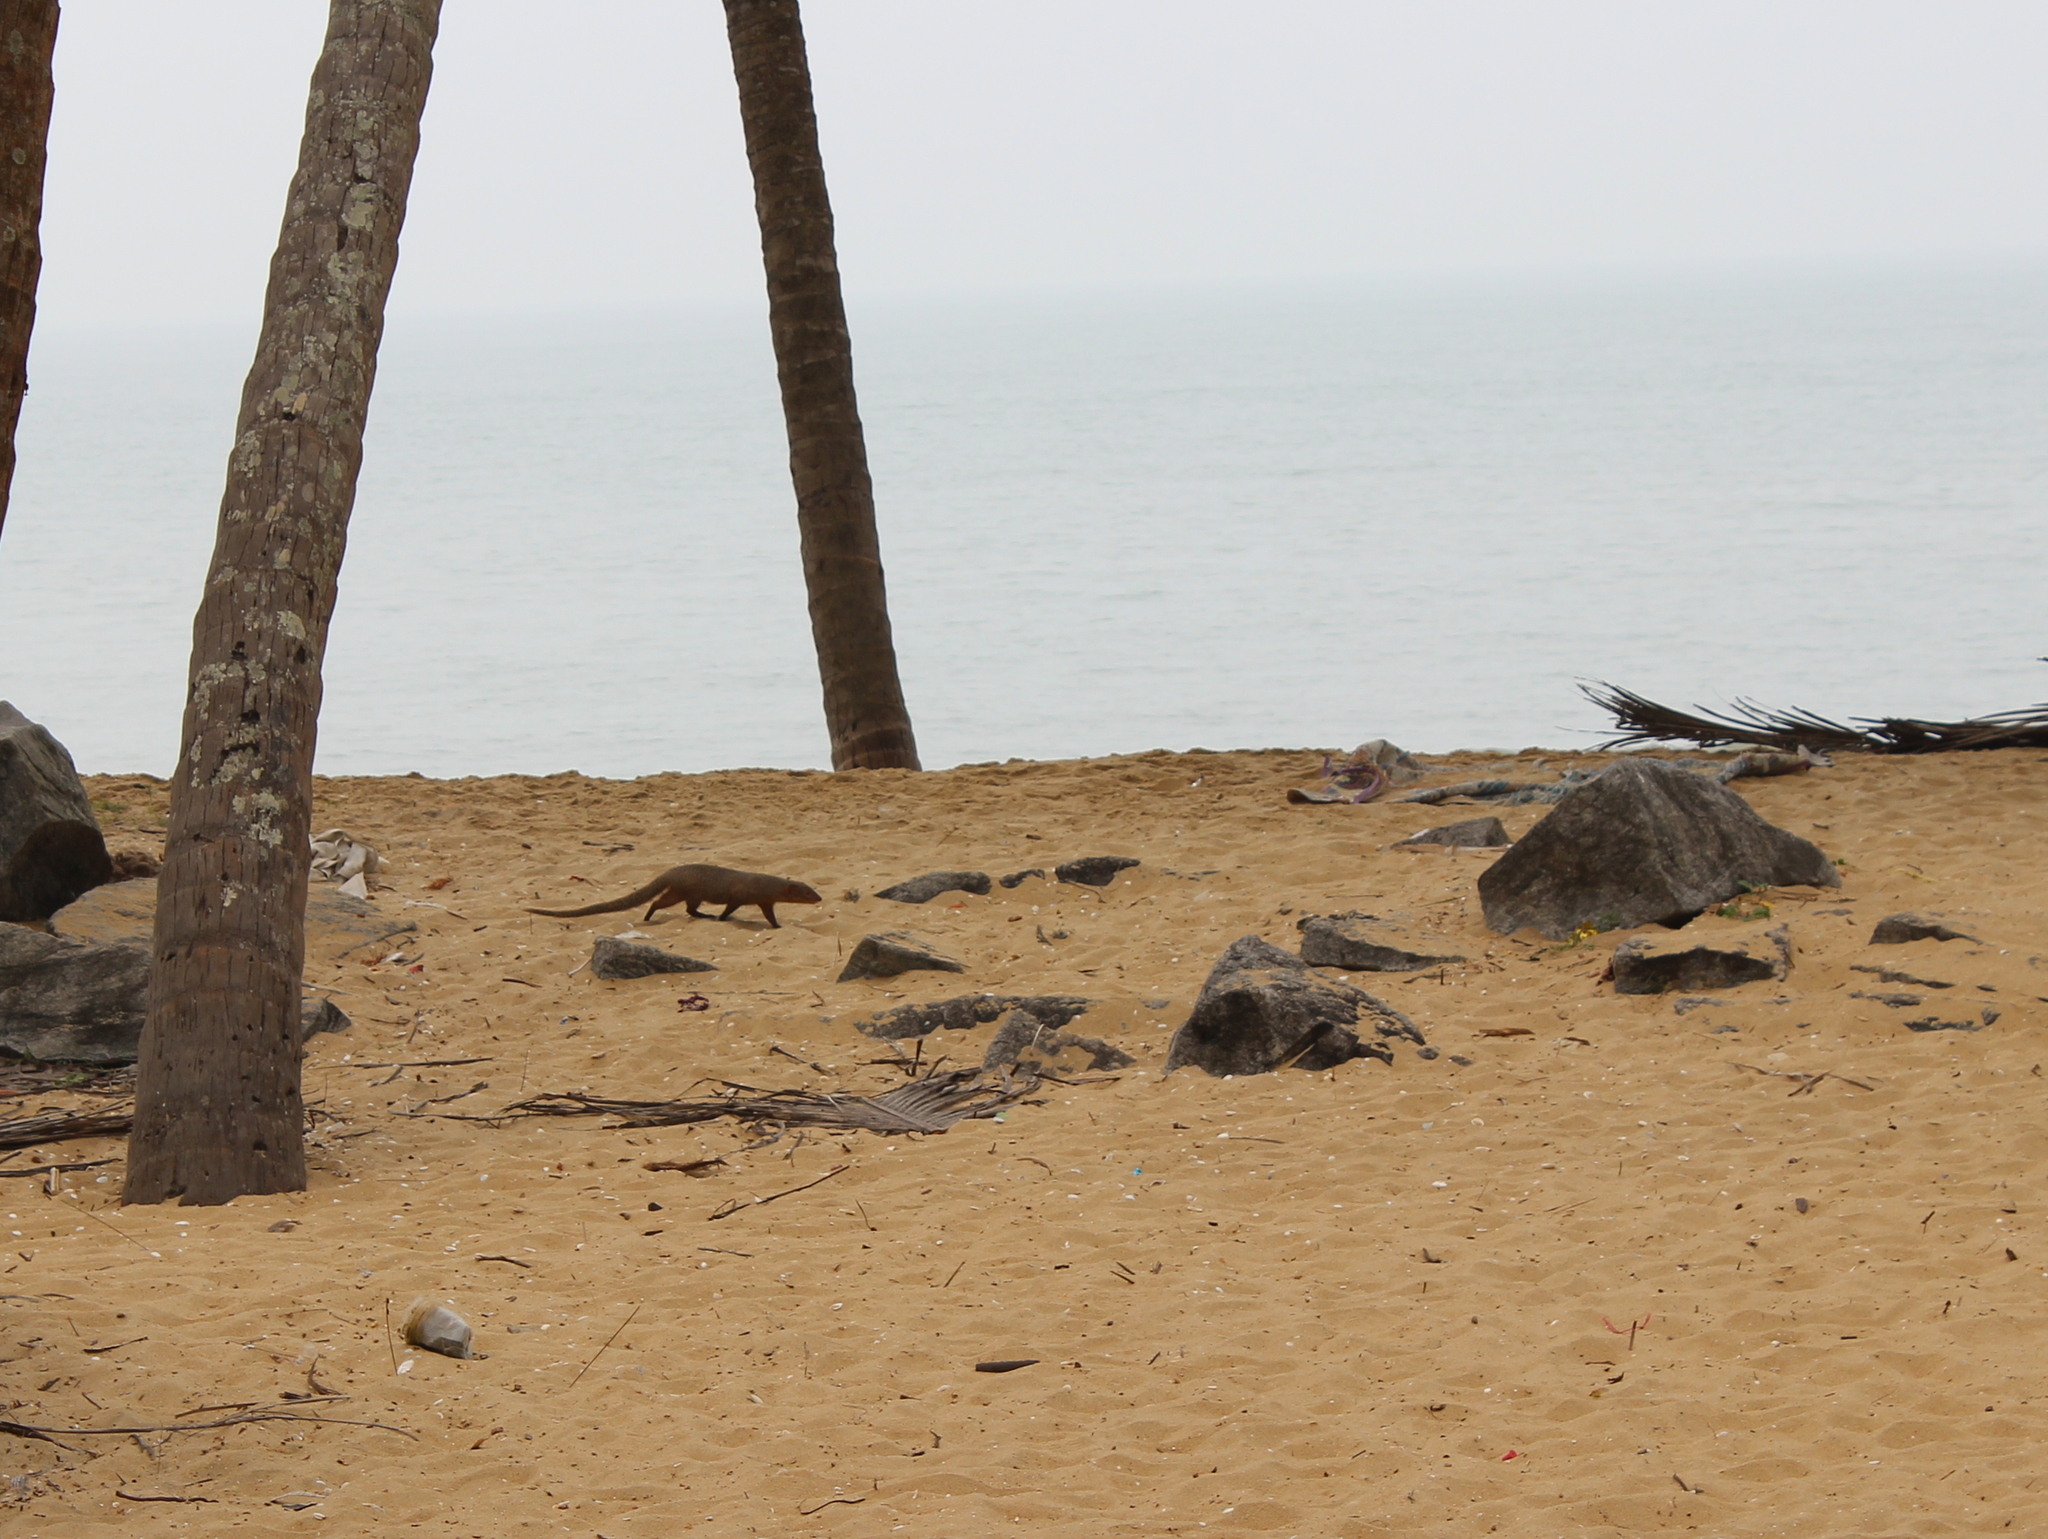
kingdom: Animalia
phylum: Chordata
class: Mammalia
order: Carnivora
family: Herpestidae
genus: Herpestes
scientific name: Herpestes edwardsi
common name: Indian gray mongoose
